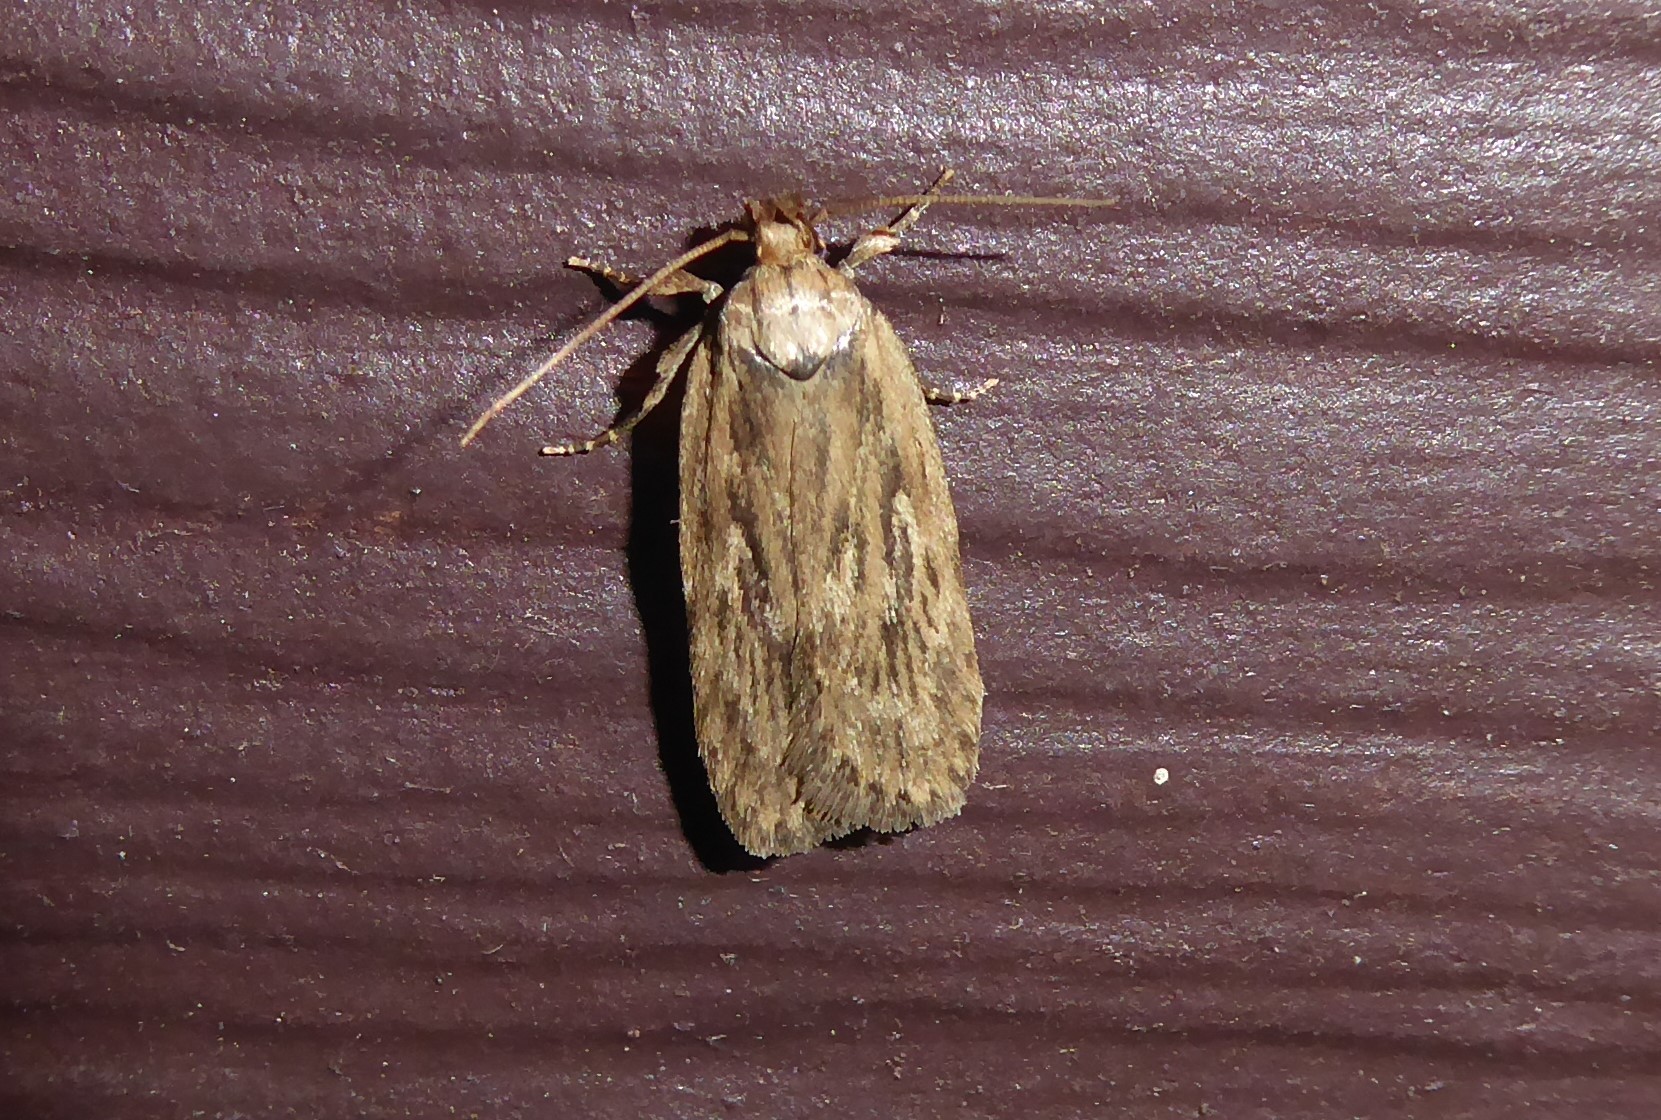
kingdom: Animalia
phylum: Arthropoda
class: Insecta
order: Lepidoptera
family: Depressariidae
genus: Depressaria
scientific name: Depressaria radiella
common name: Parsnip moth
